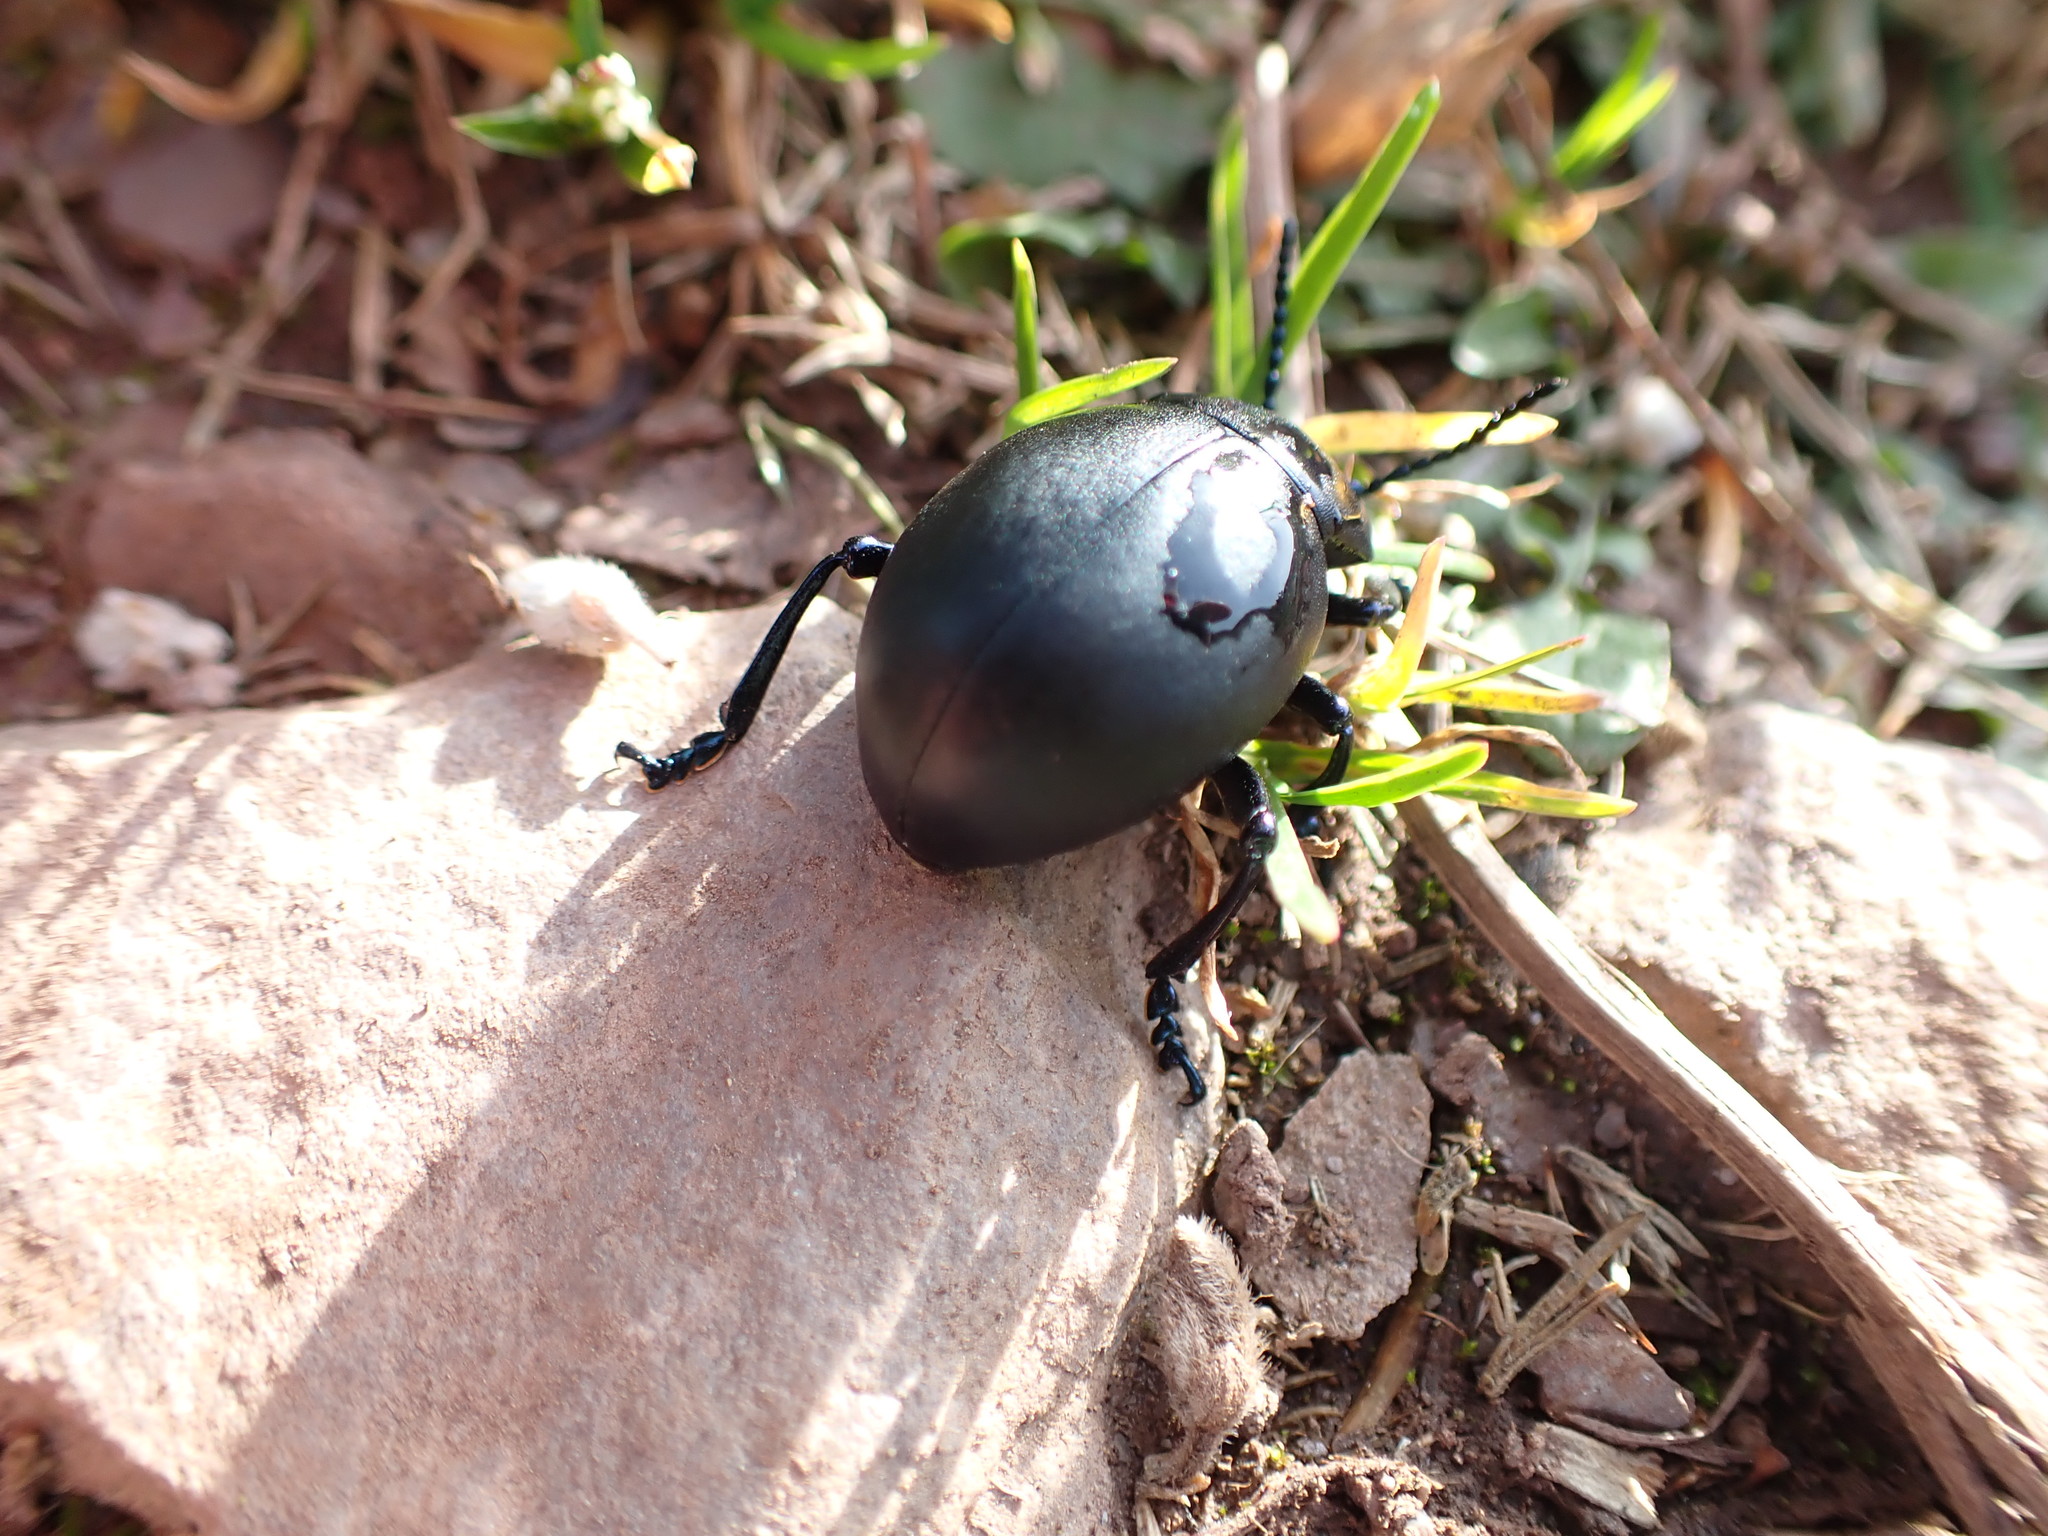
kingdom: Animalia
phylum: Arthropoda
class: Insecta
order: Coleoptera
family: Chrysomelidae
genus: Timarcha
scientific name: Timarcha tenebricosa
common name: Bloody-nosed beetle
